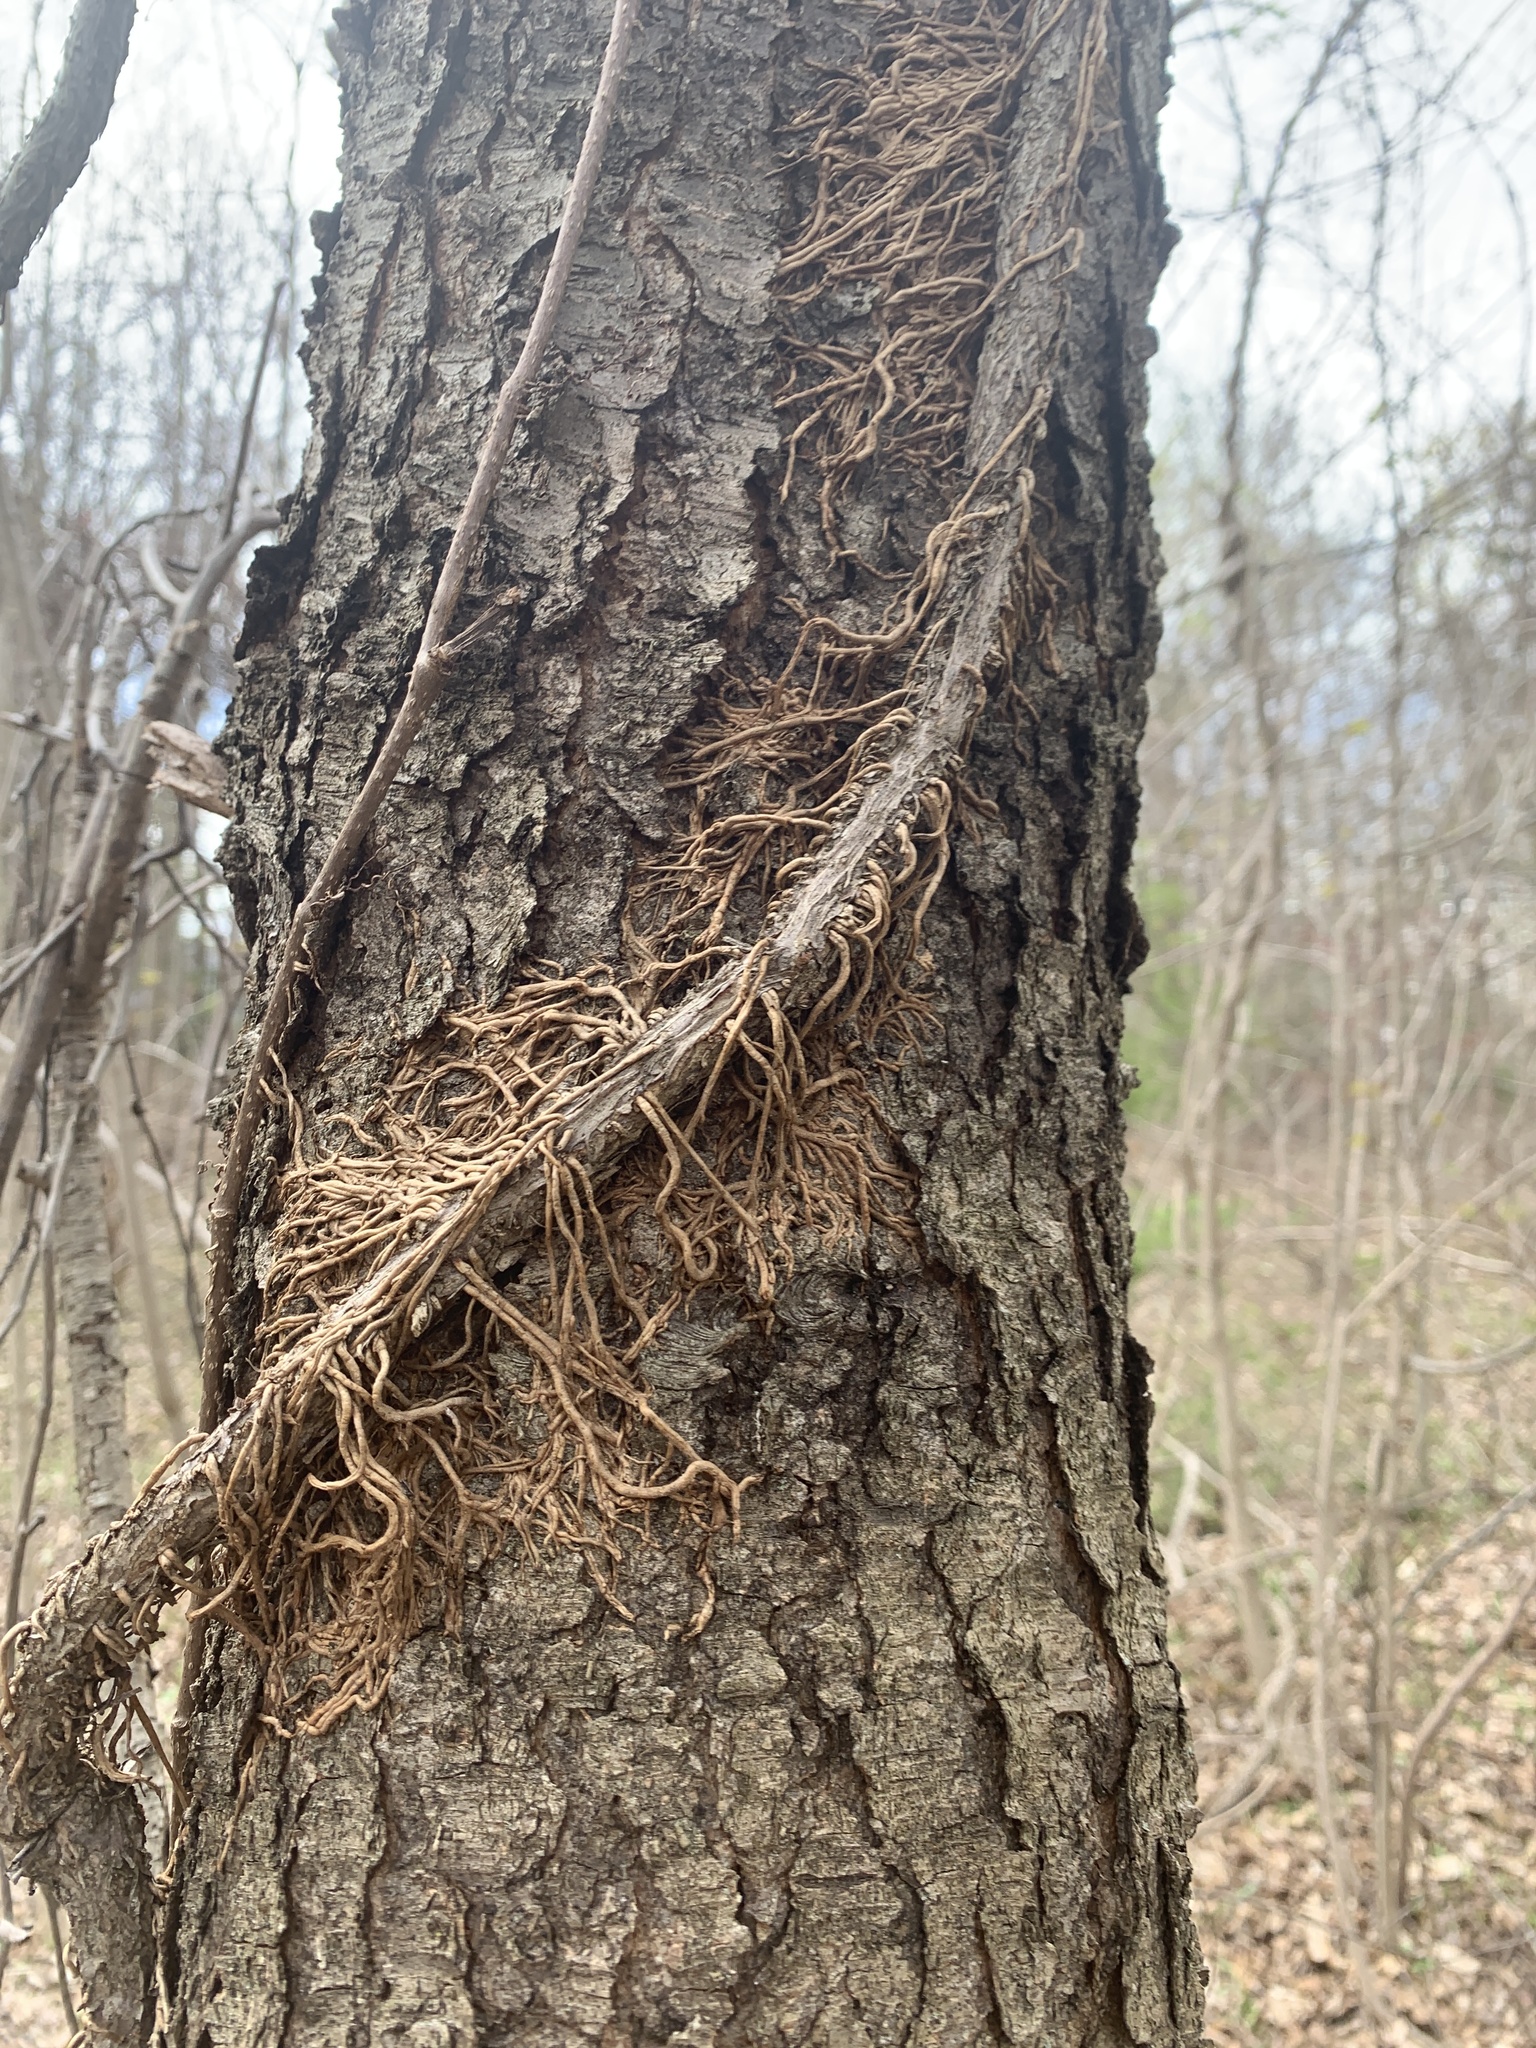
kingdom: Plantae
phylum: Tracheophyta
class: Magnoliopsida
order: Sapindales
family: Anacardiaceae
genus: Toxicodendron
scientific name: Toxicodendron radicans
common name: Poison ivy
